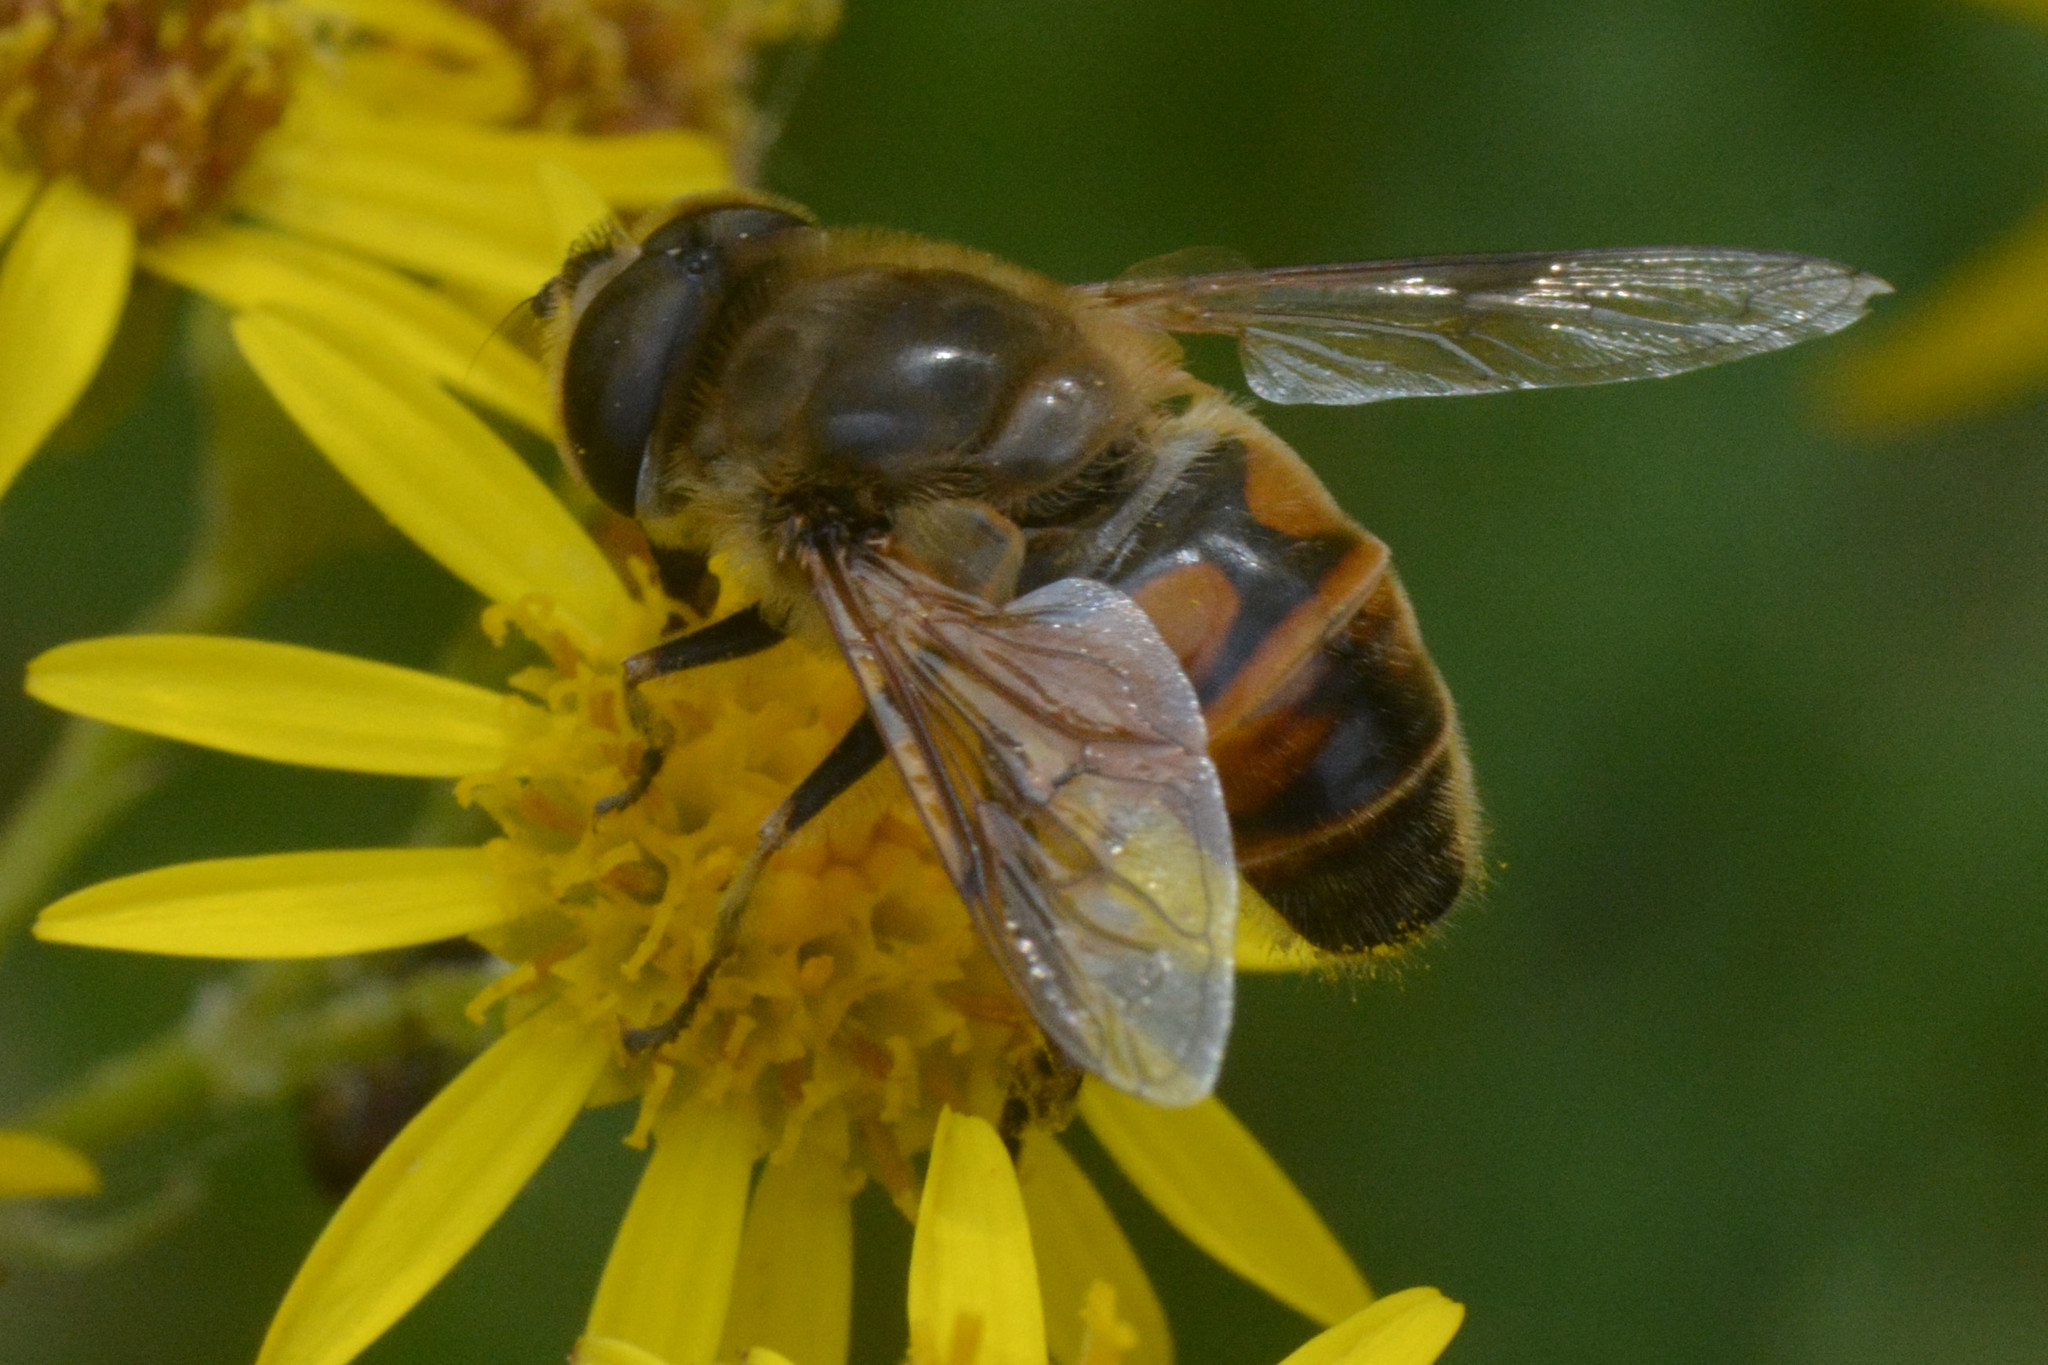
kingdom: Animalia
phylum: Arthropoda
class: Insecta
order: Diptera
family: Syrphidae
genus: Eristalis
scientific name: Eristalis tenax
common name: Drone fly
